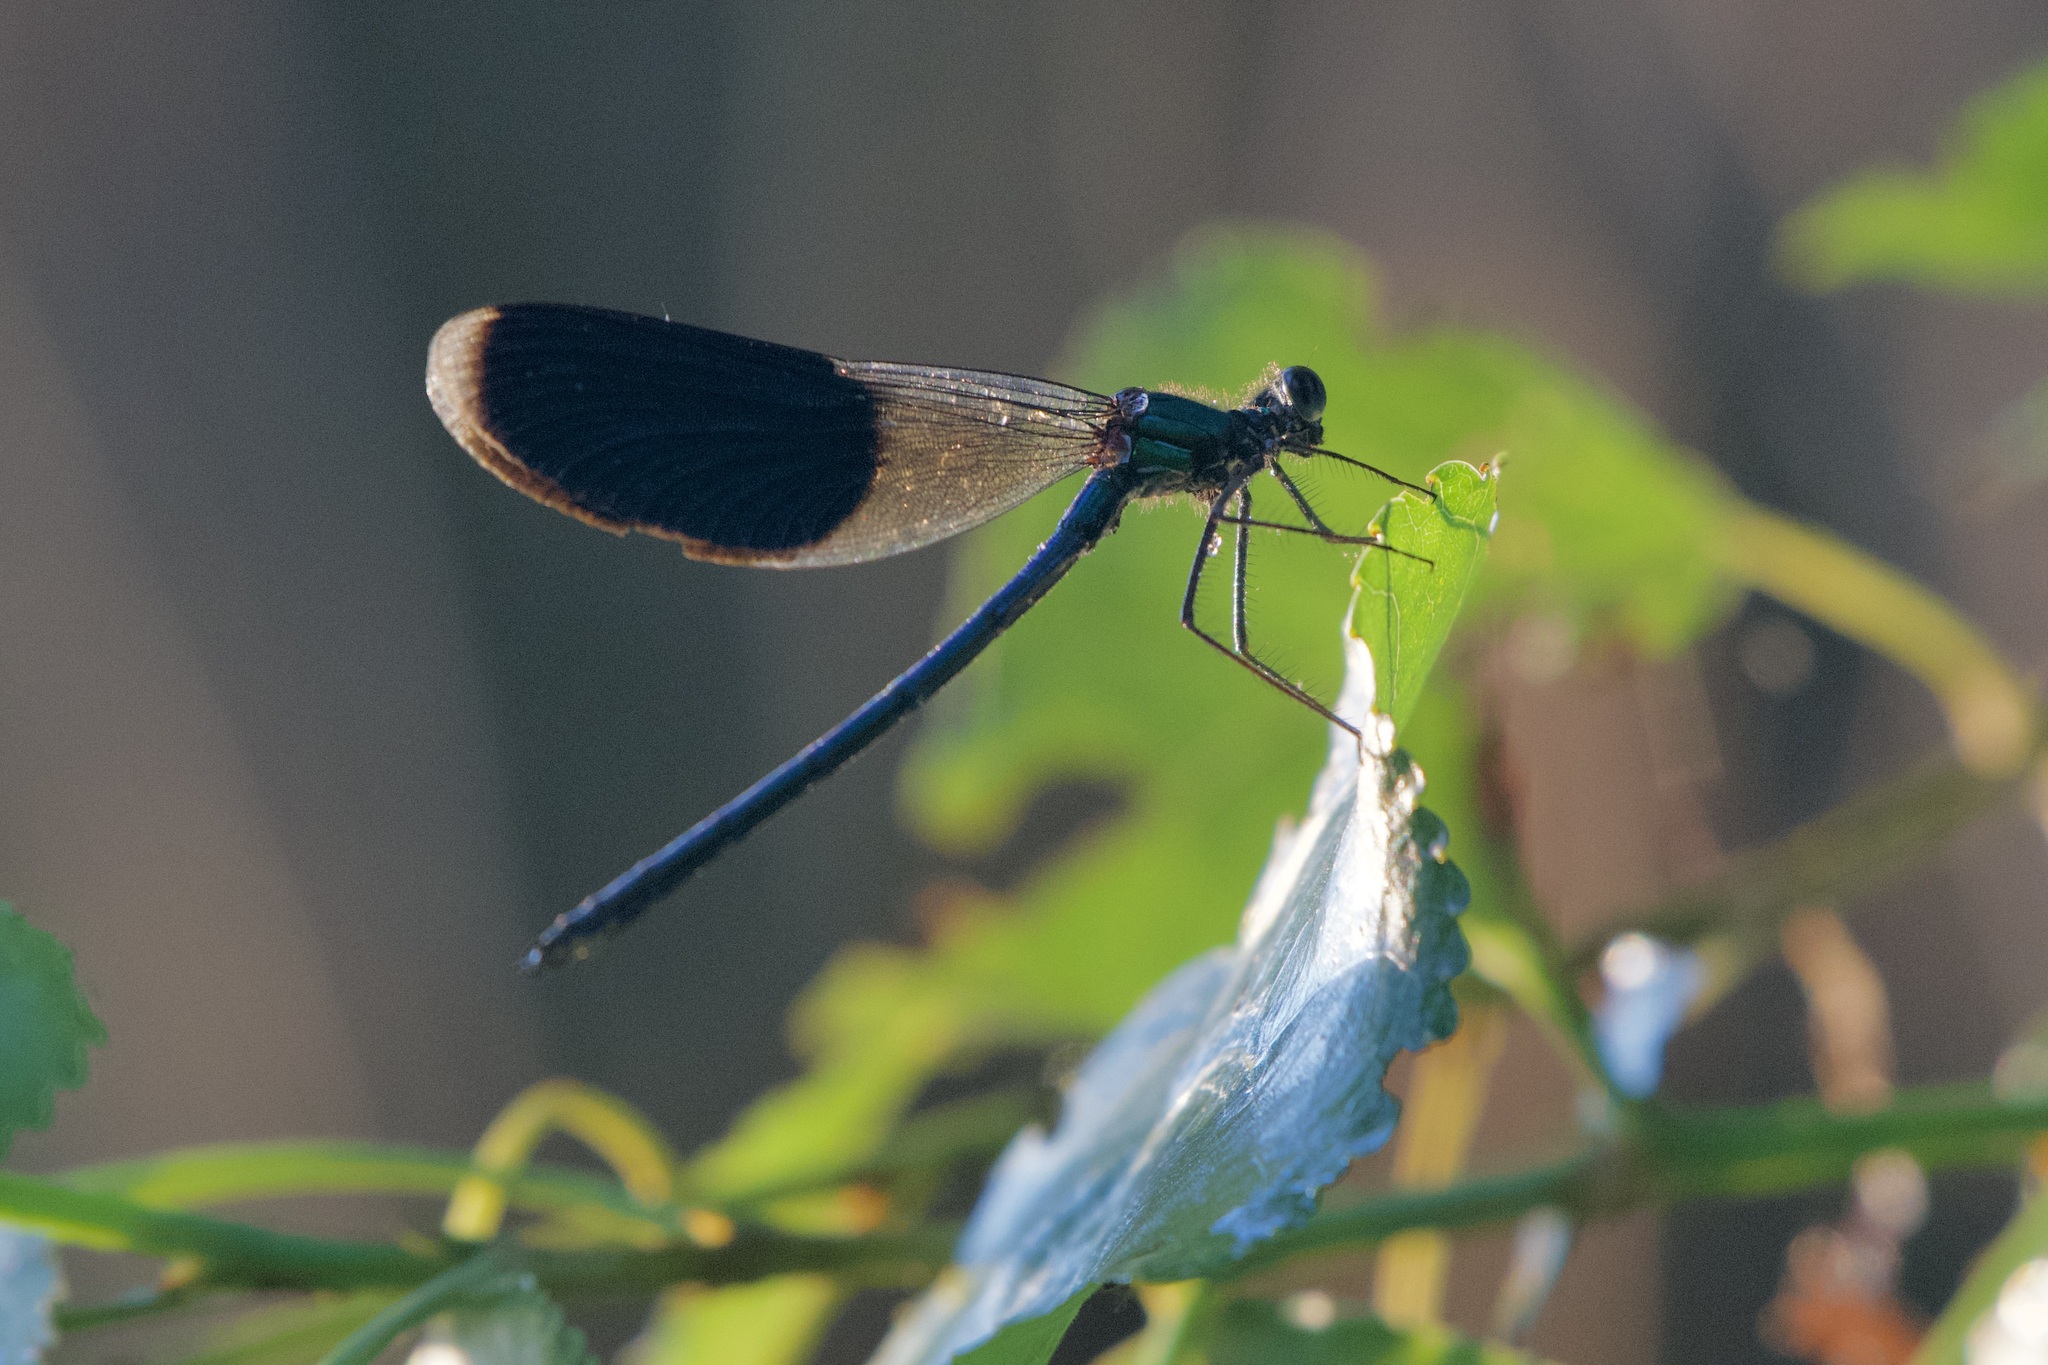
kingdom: Animalia
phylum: Arthropoda
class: Insecta
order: Odonata
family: Calopterygidae
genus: Calopteryx
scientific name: Calopteryx splendens
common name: Banded demoiselle
